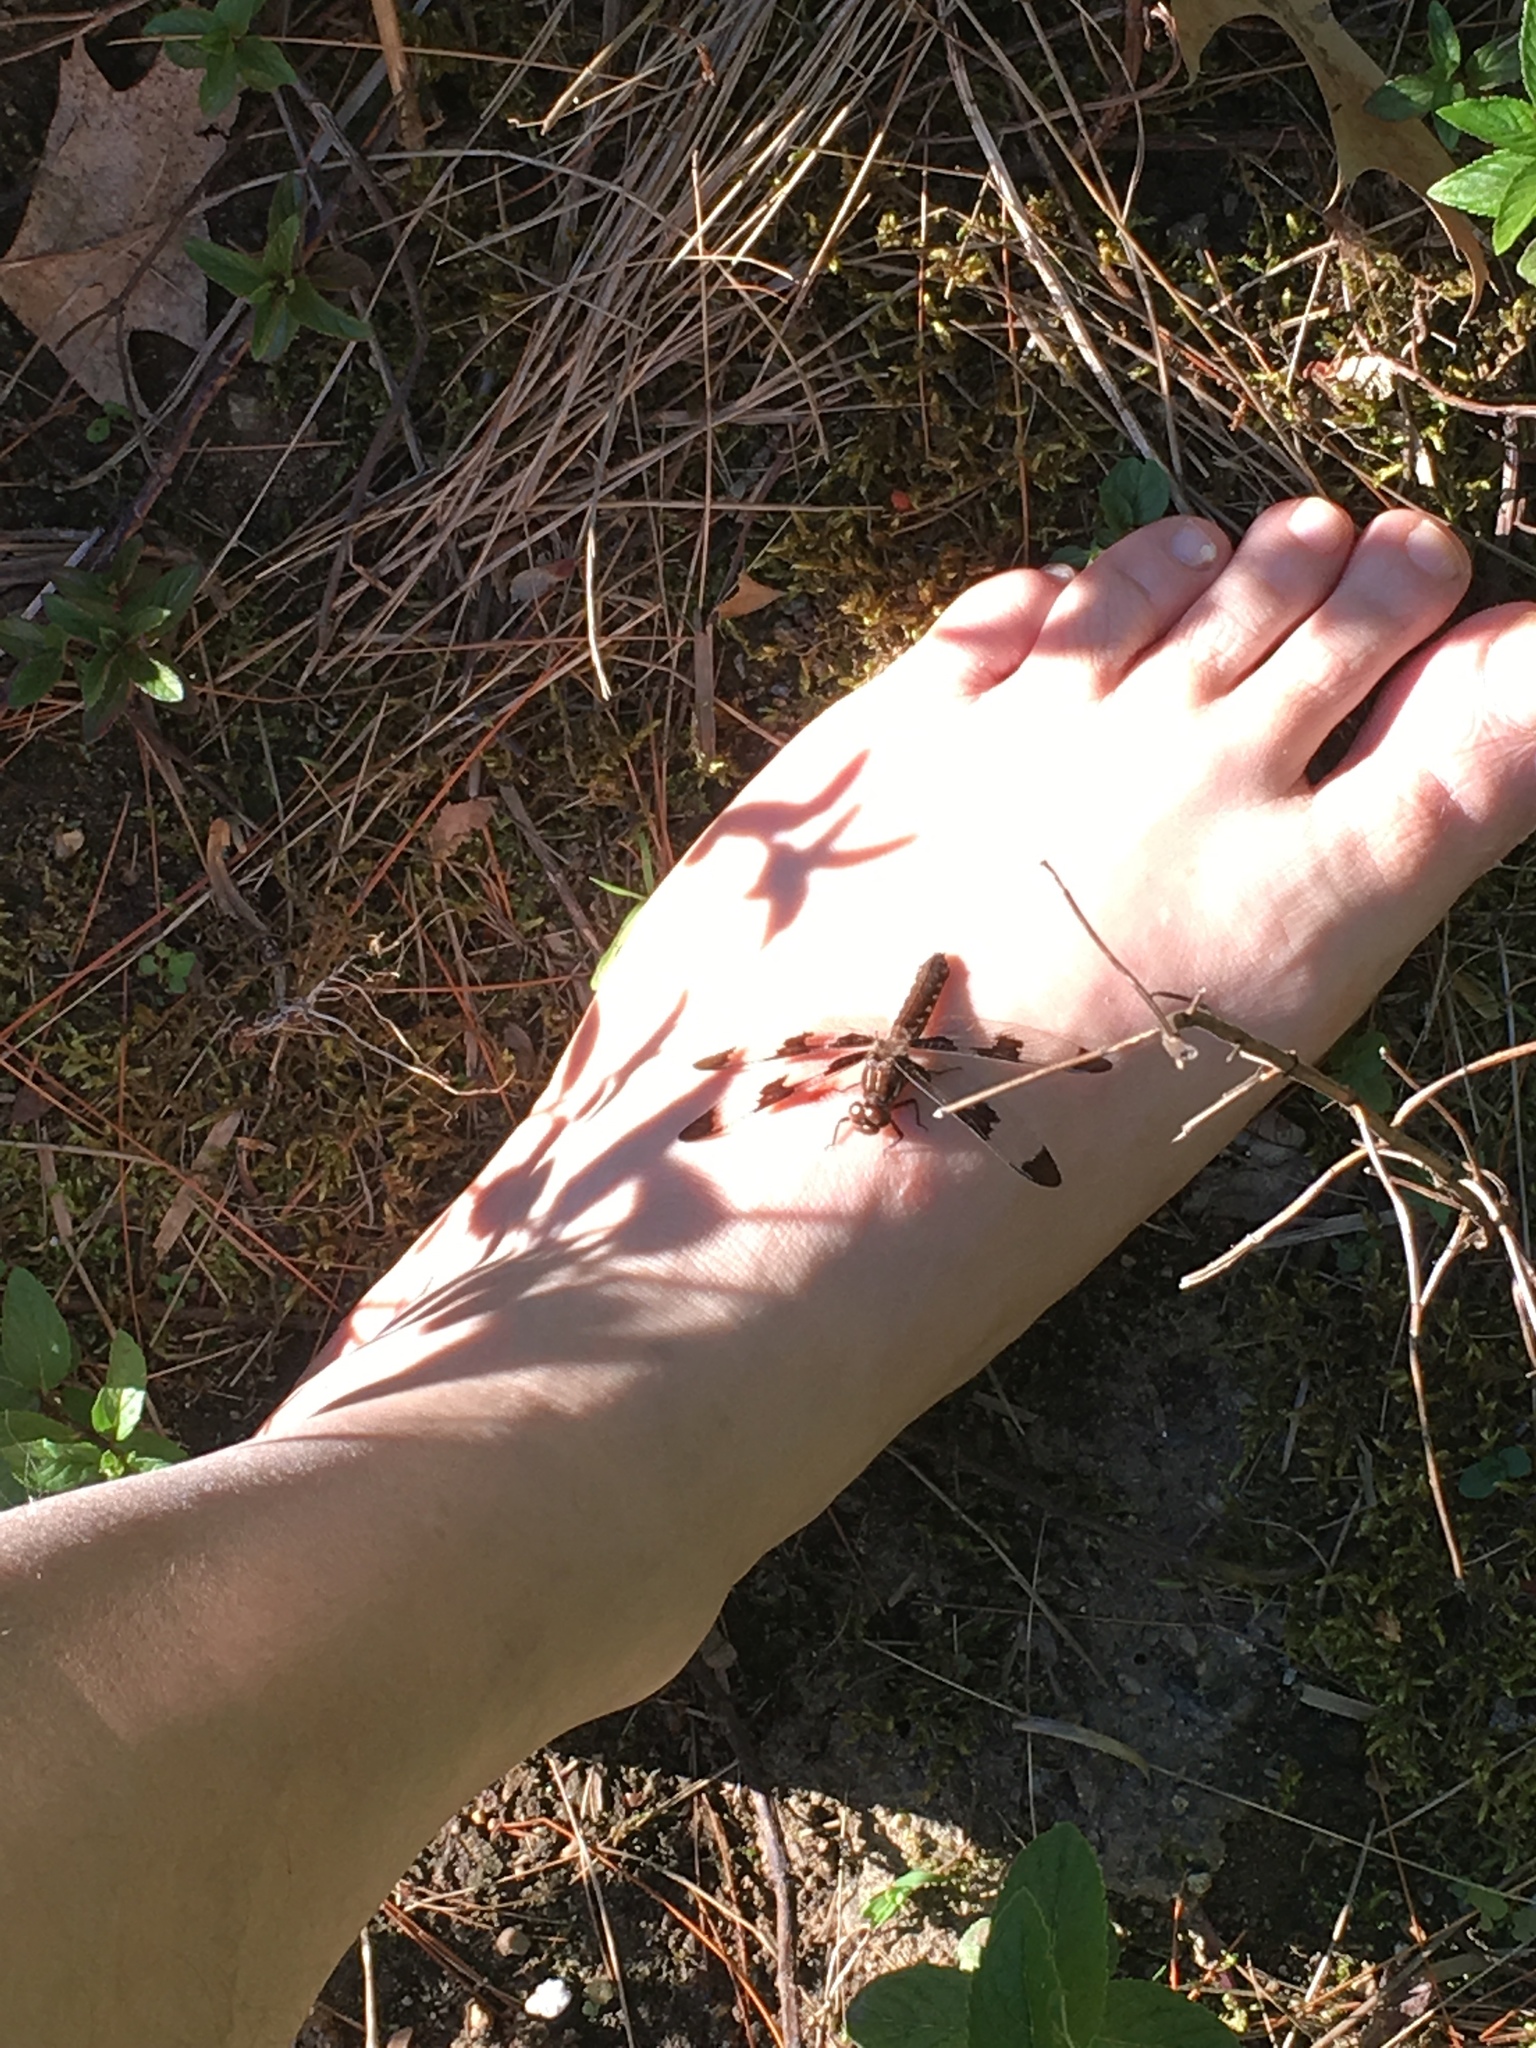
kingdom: Animalia
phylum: Arthropoda
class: Insecta
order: Odonata
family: Libellulidae
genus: Plathemis
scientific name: Plathemis lydia
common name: Common whitetail
